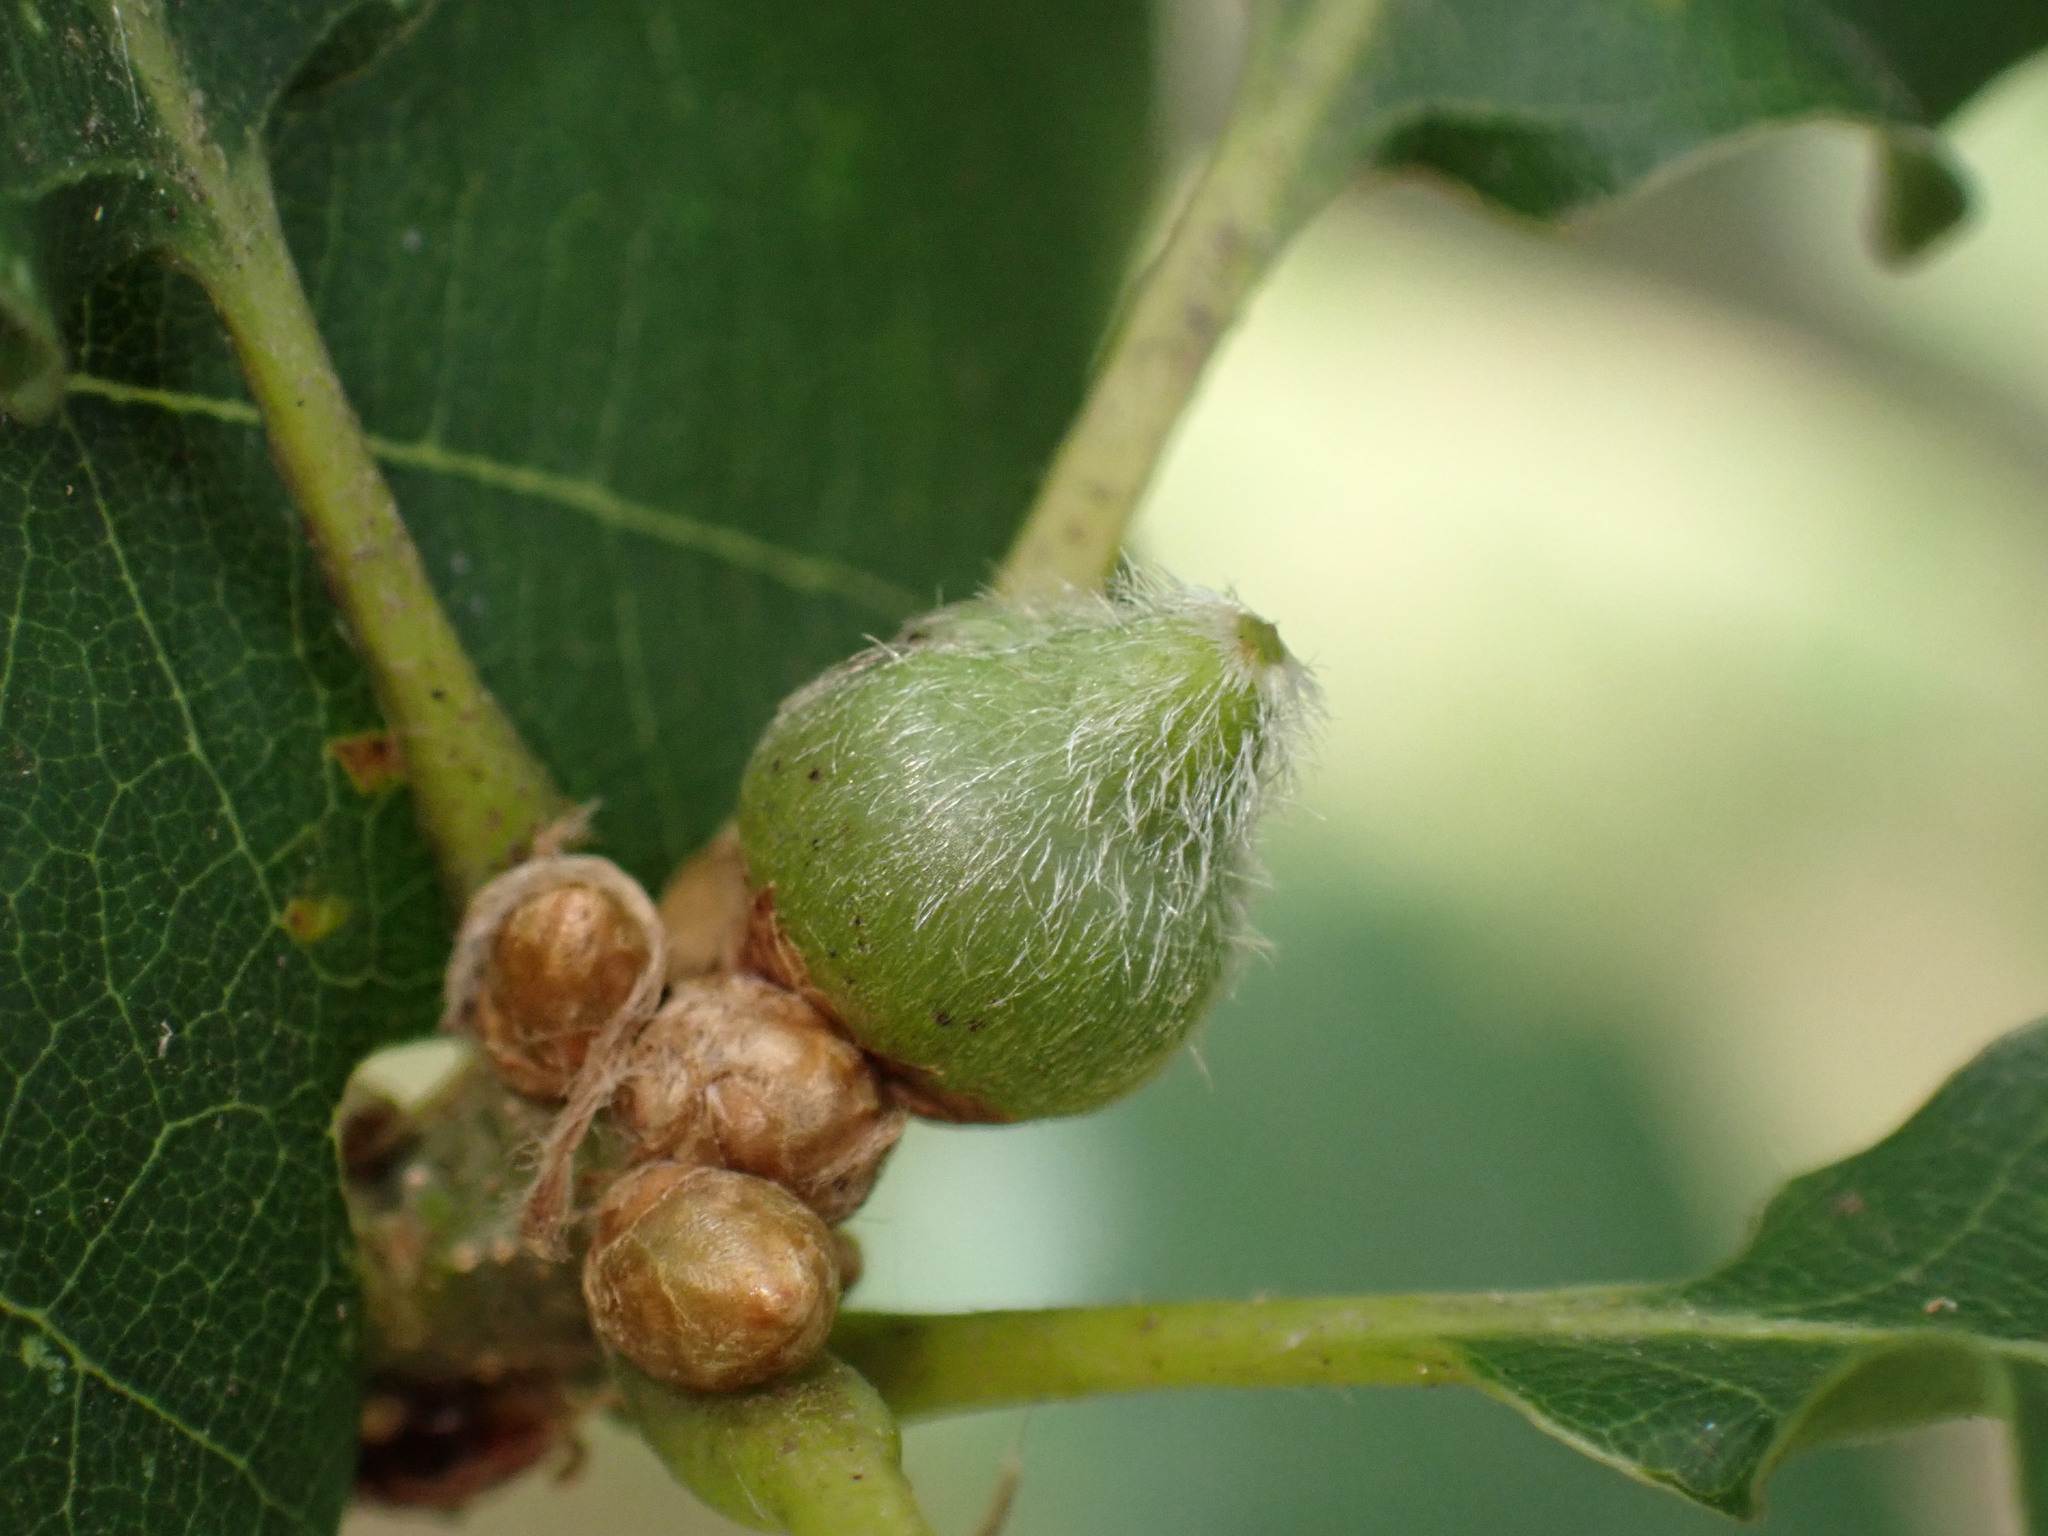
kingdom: Animalia
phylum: Arthropoda
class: Insecta
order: Hymenoptera
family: Cynipidae
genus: Andricus
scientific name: Andricus glandulae
